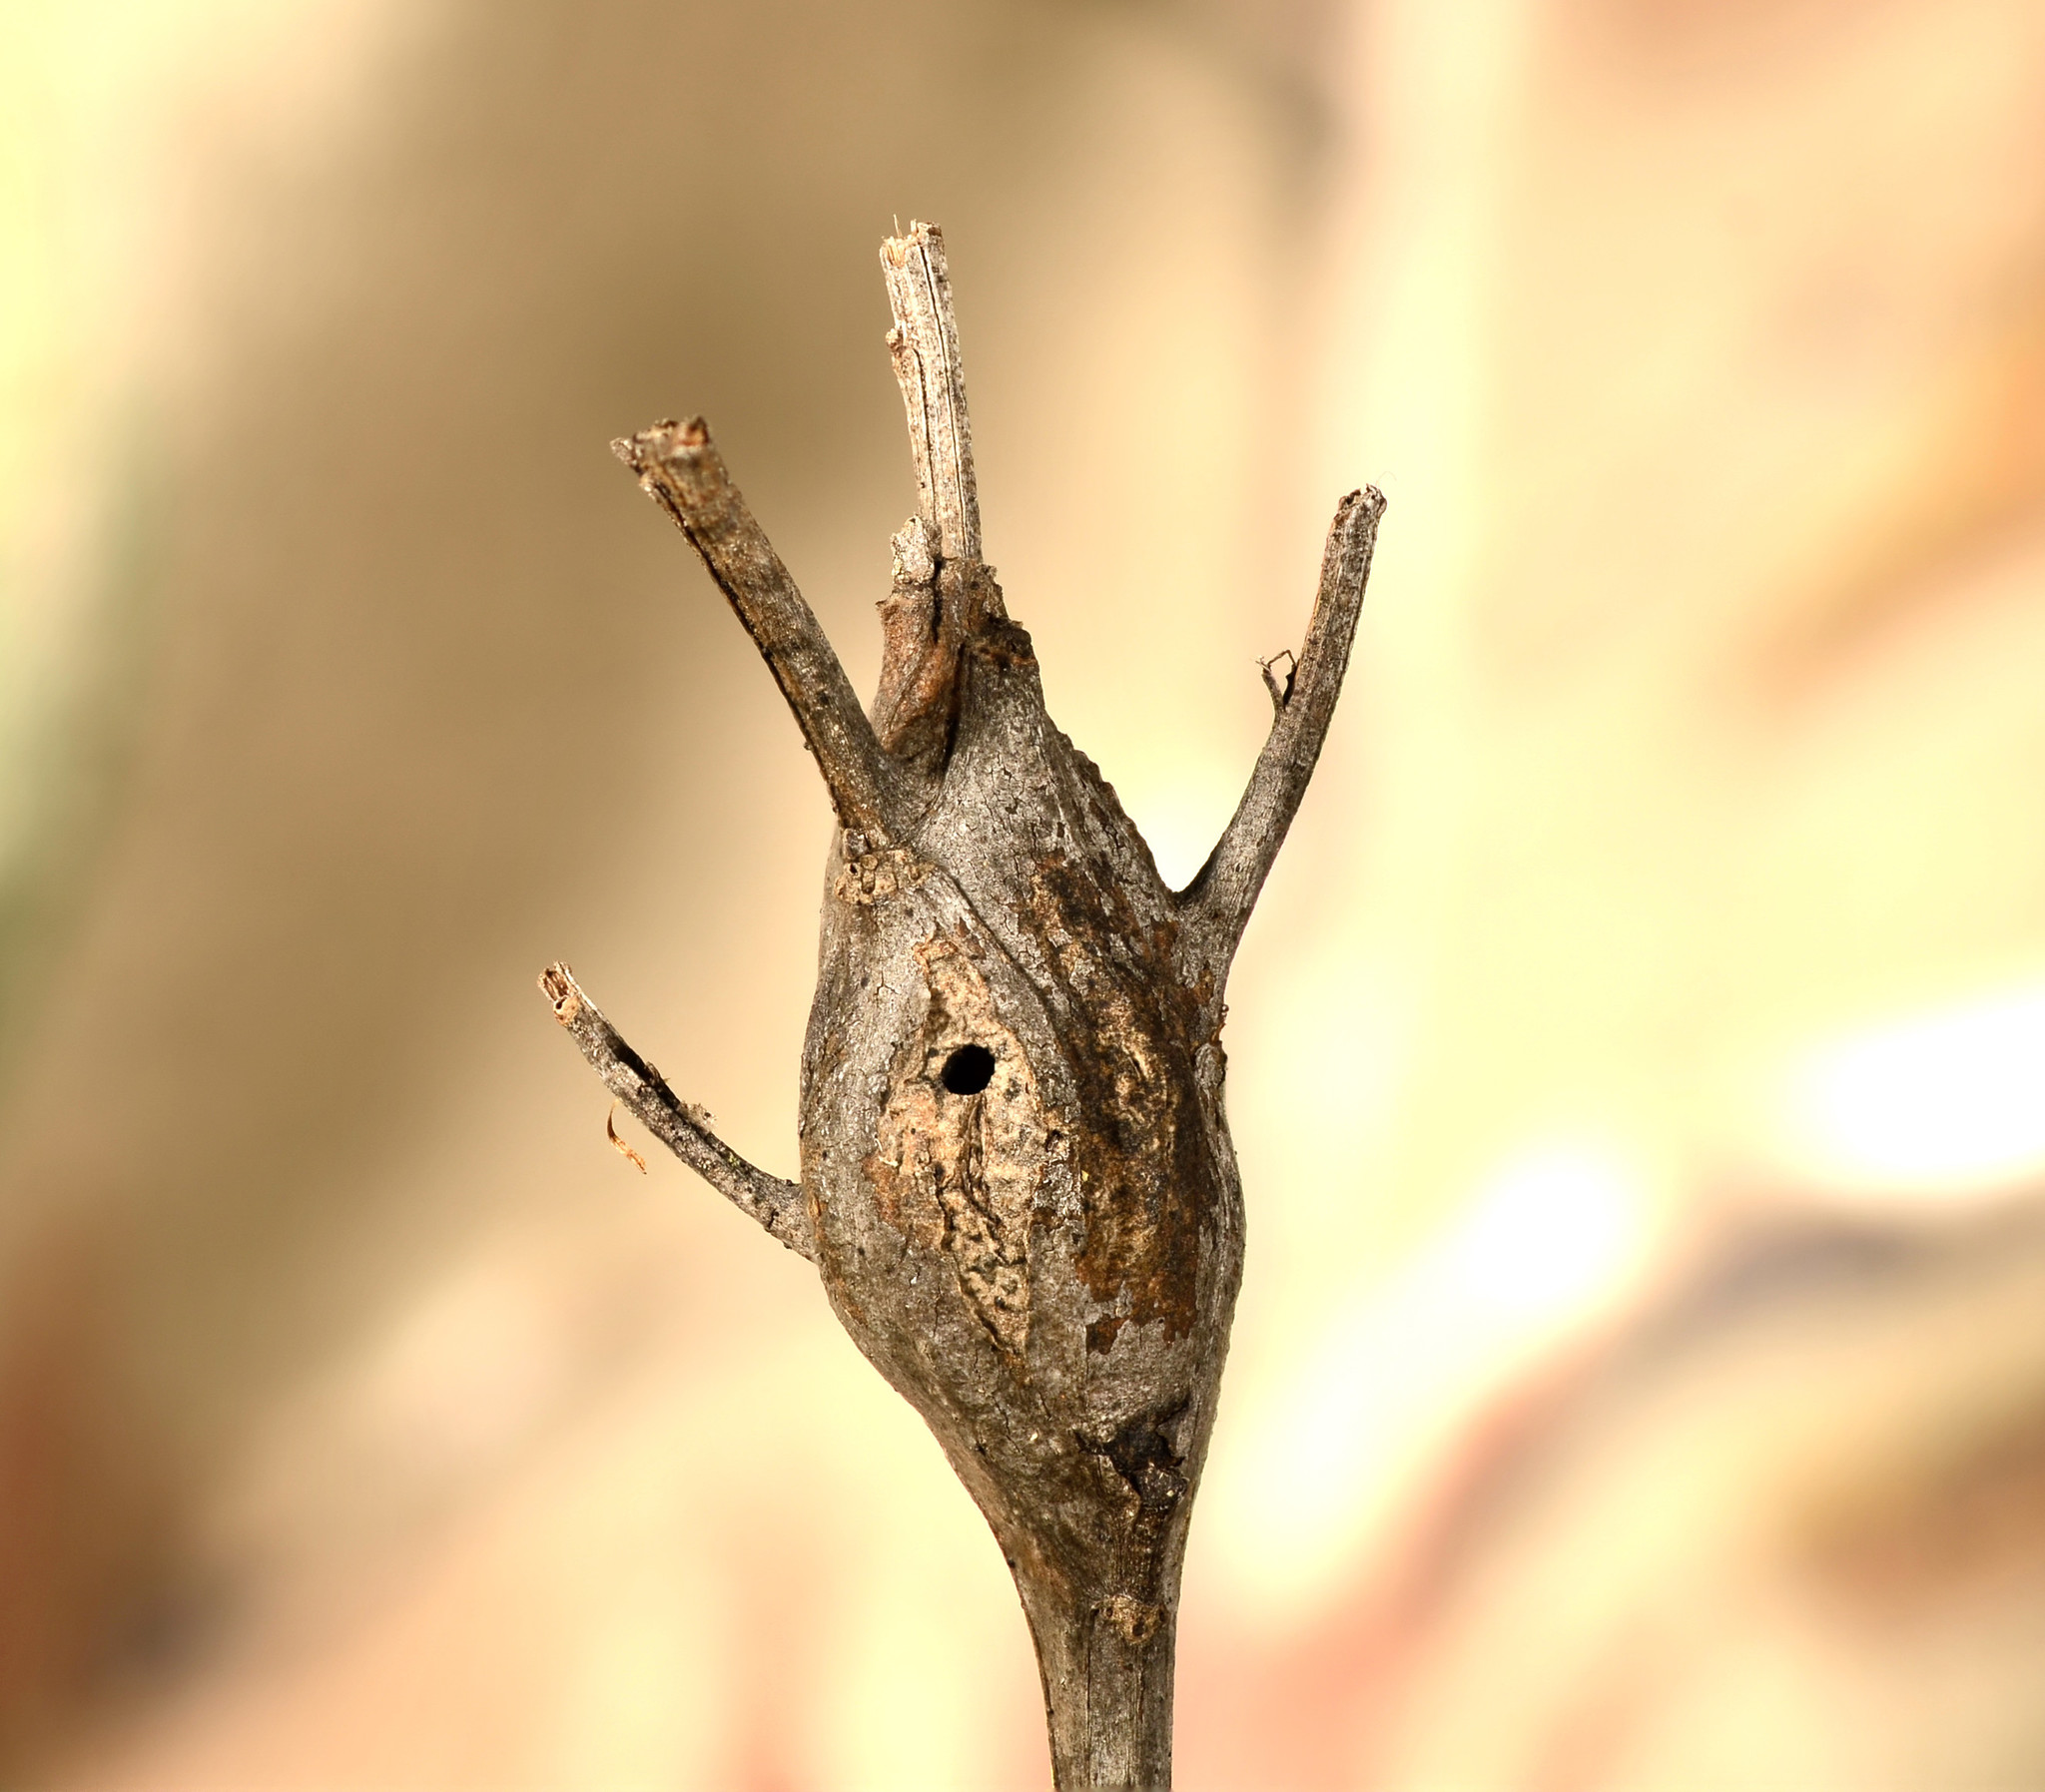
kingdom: Animalia
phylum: Arthropoda
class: Insecta
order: Lepidoptera
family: Gelechiidae
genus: Gnorimoschema
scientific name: Gnorimoschema baccharisella
